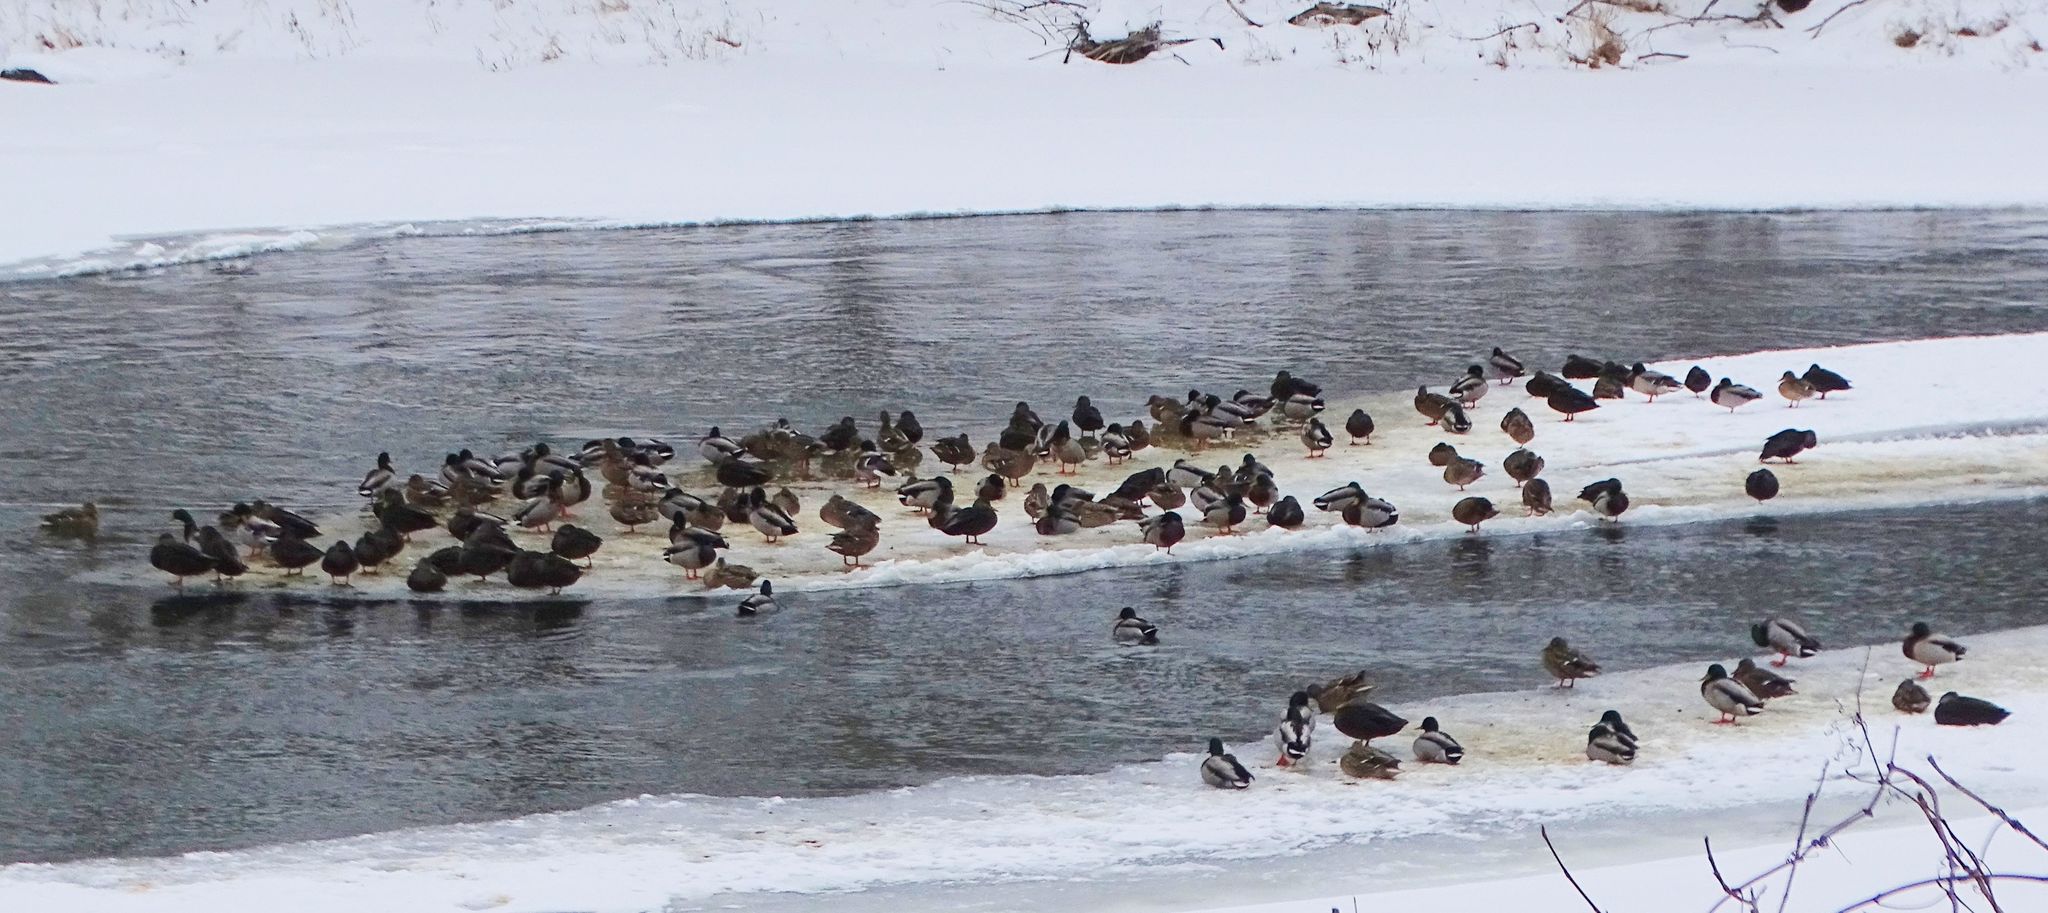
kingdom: Animalia
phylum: Chordata
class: Aves
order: Anseriformes
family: Anatidae
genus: Anas
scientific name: Anas platyrhynchos
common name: Mallard
